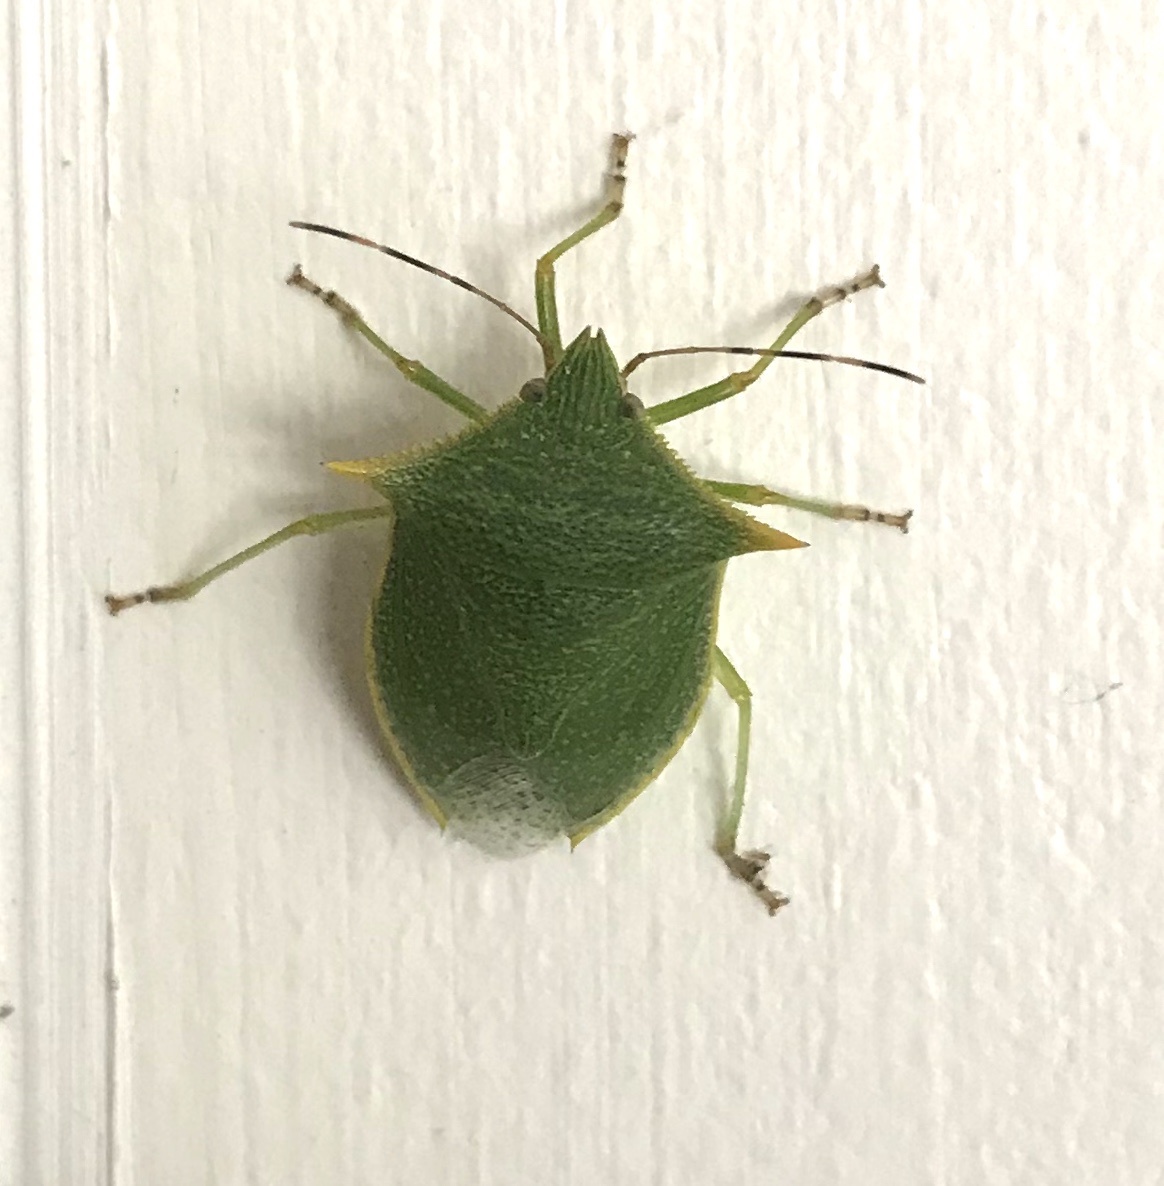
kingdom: Animalia
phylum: Arthropoda
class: Insecta
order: Hemiptera
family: Pentatomidae
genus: Loxa
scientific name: Loxa viridis
